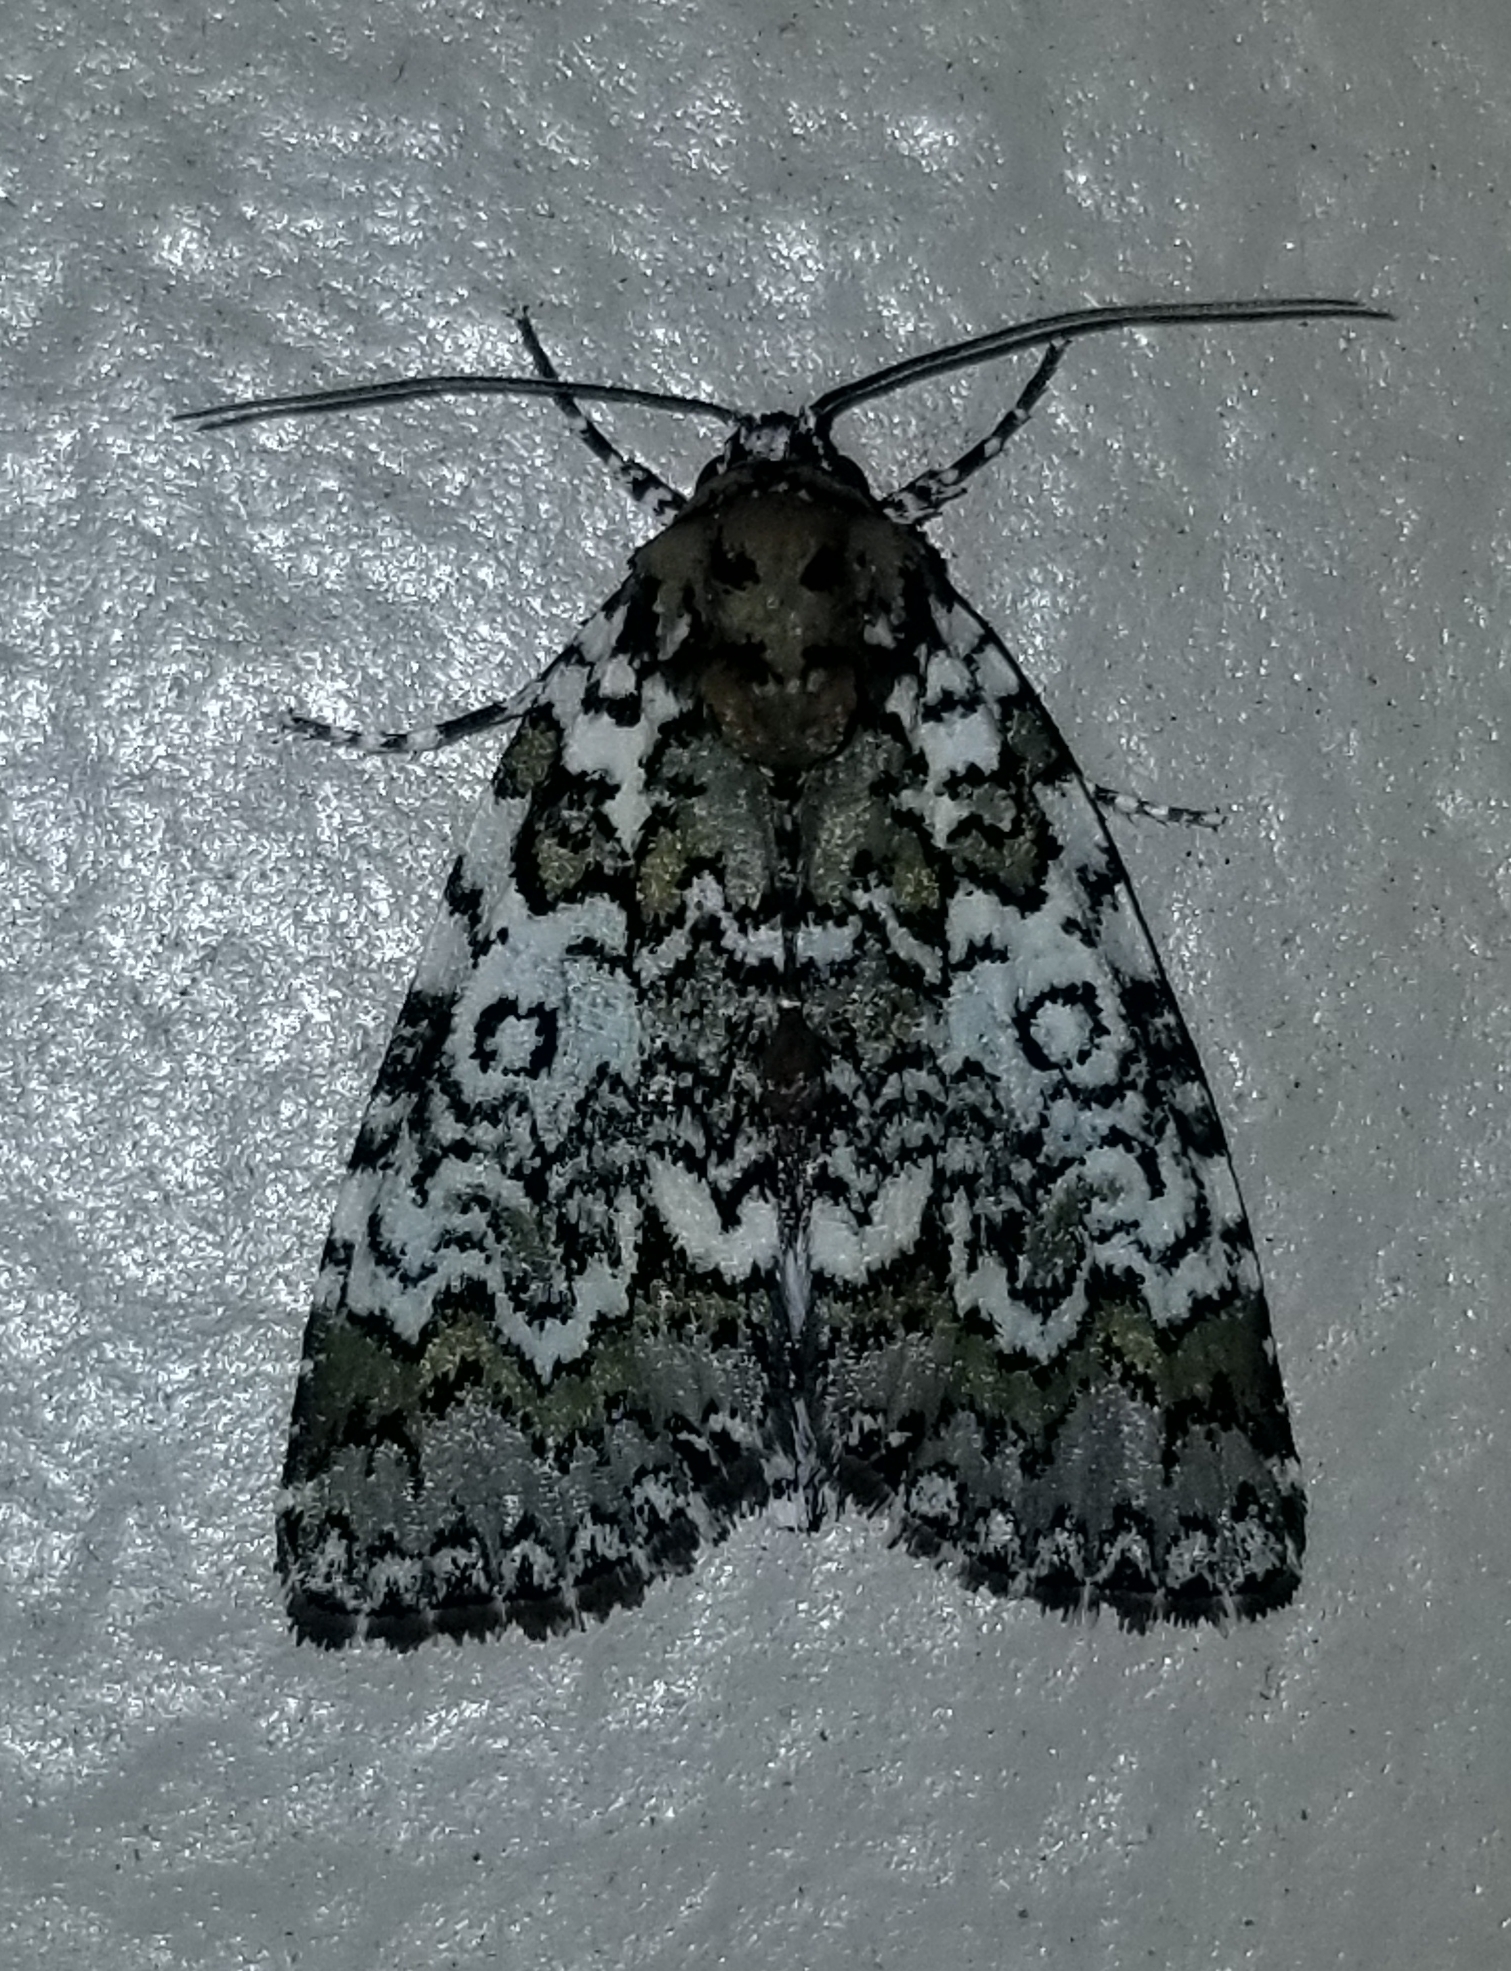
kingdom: Animalia
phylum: Arthropoda
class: Insecta
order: Lepidoptera
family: Noctuidae
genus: Cerma
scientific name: Cerma cora
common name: Bird dropping moth
